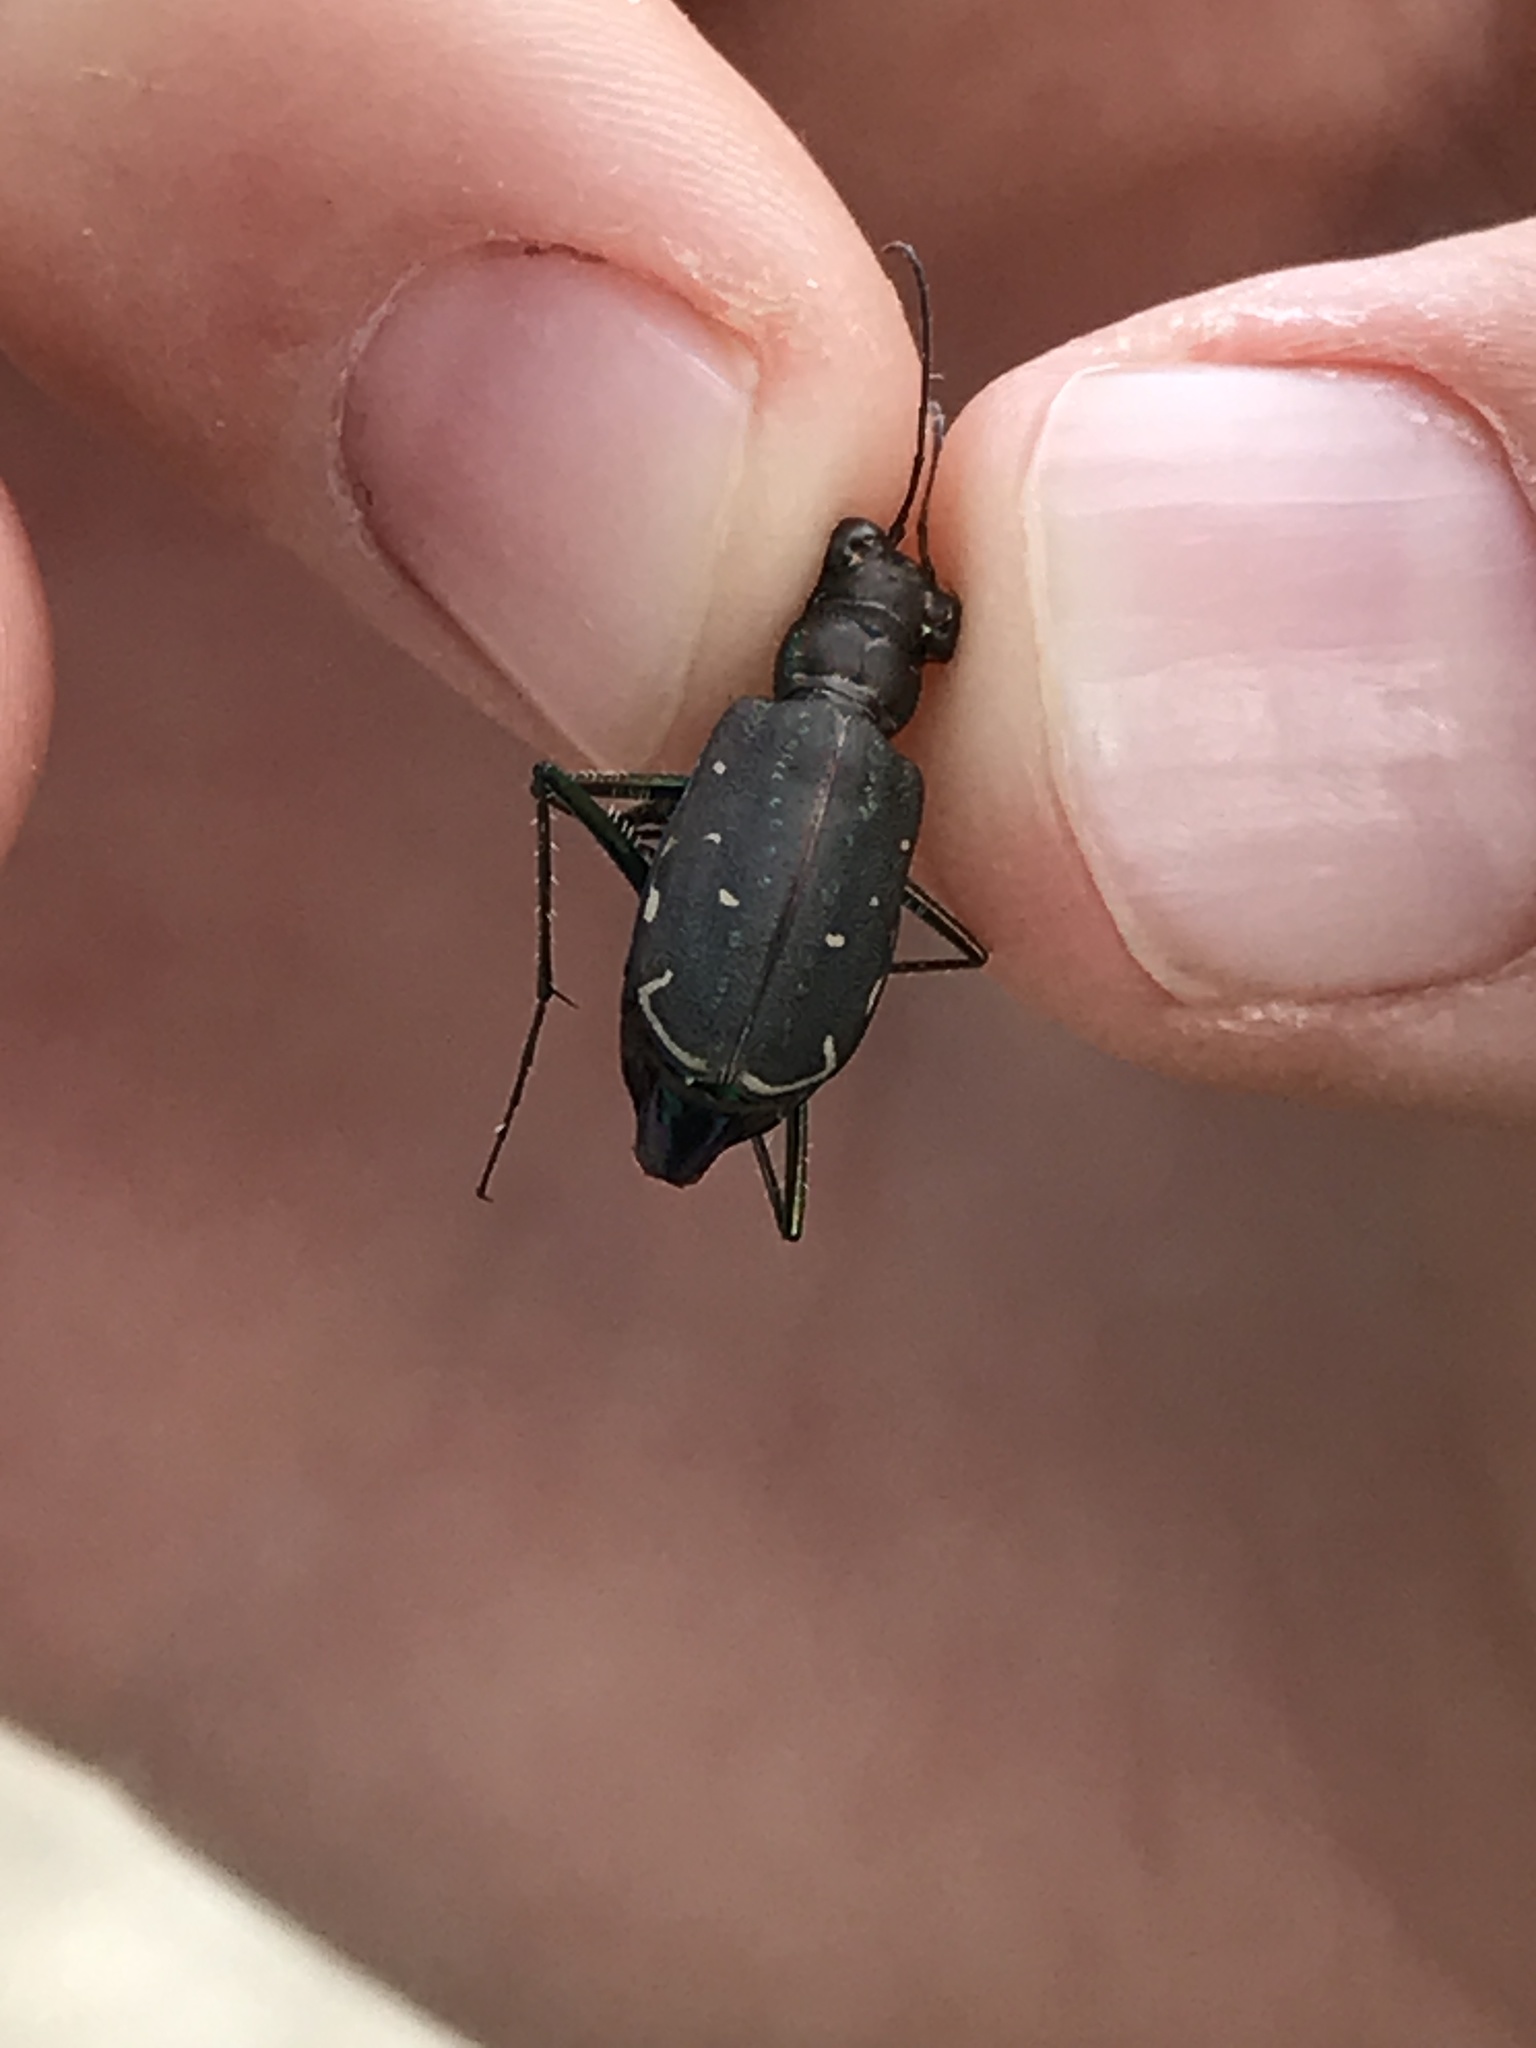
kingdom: Animalia
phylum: Arthropoda
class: Insecta
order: Coleoptera
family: Carabidae
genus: Cicindela
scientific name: Cicindela punctulata
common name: Punctured tiger beetle
